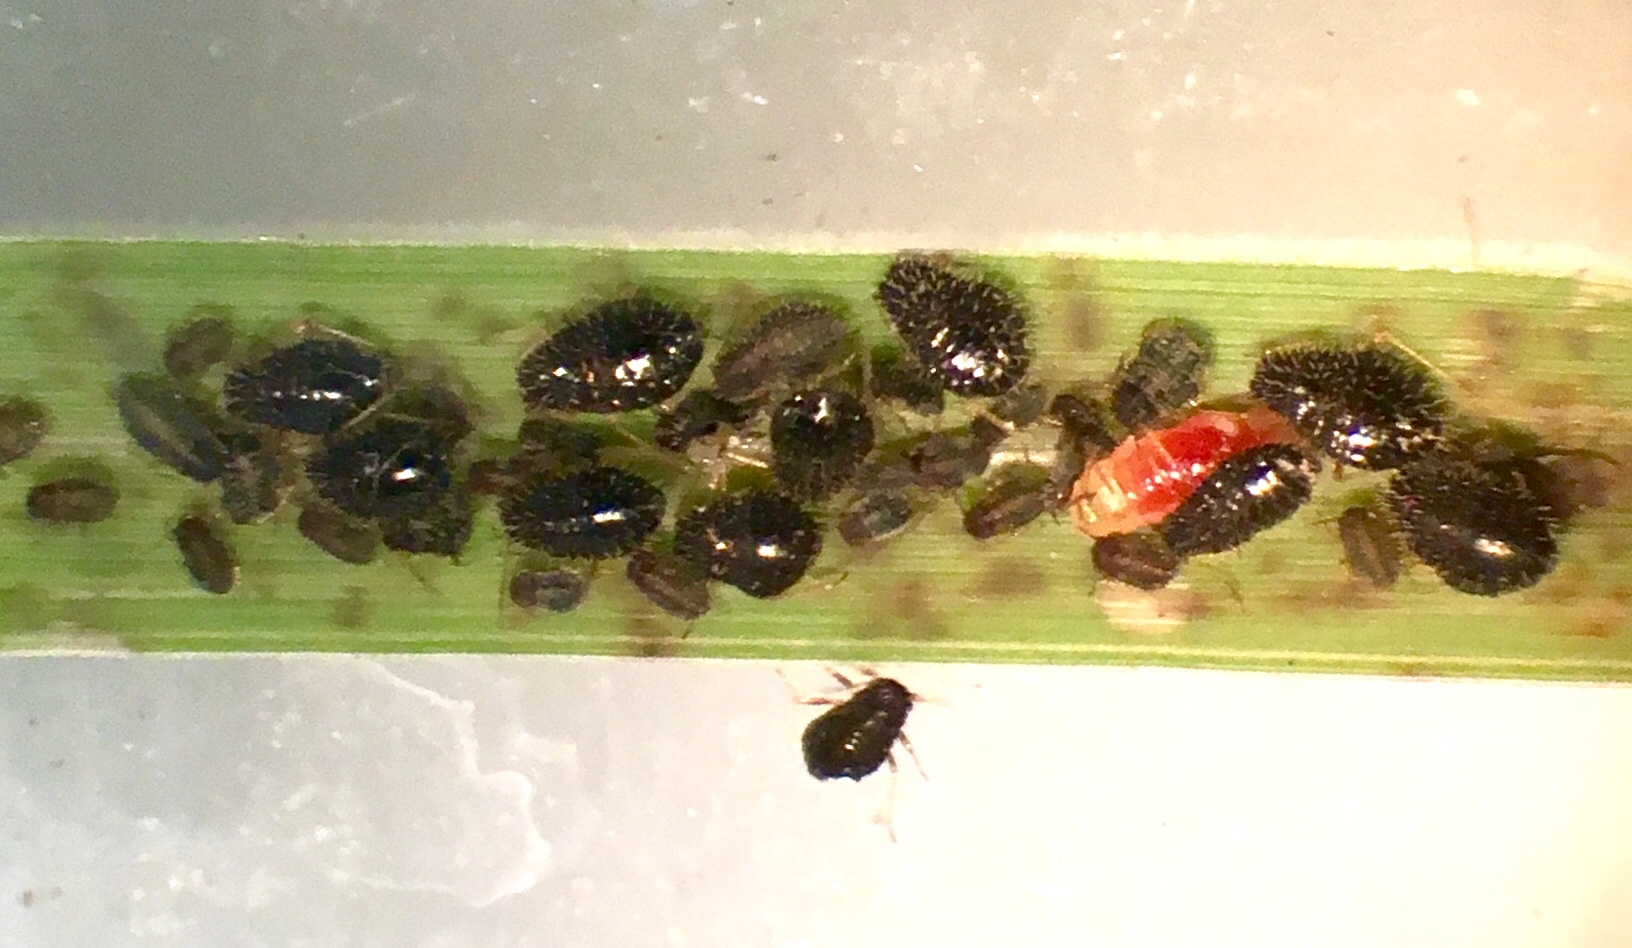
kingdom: Animalia
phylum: Arthropoda
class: Insecta
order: Hemiptera
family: Aphididae
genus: Sipha
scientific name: Sipha maydis
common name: Aphid
